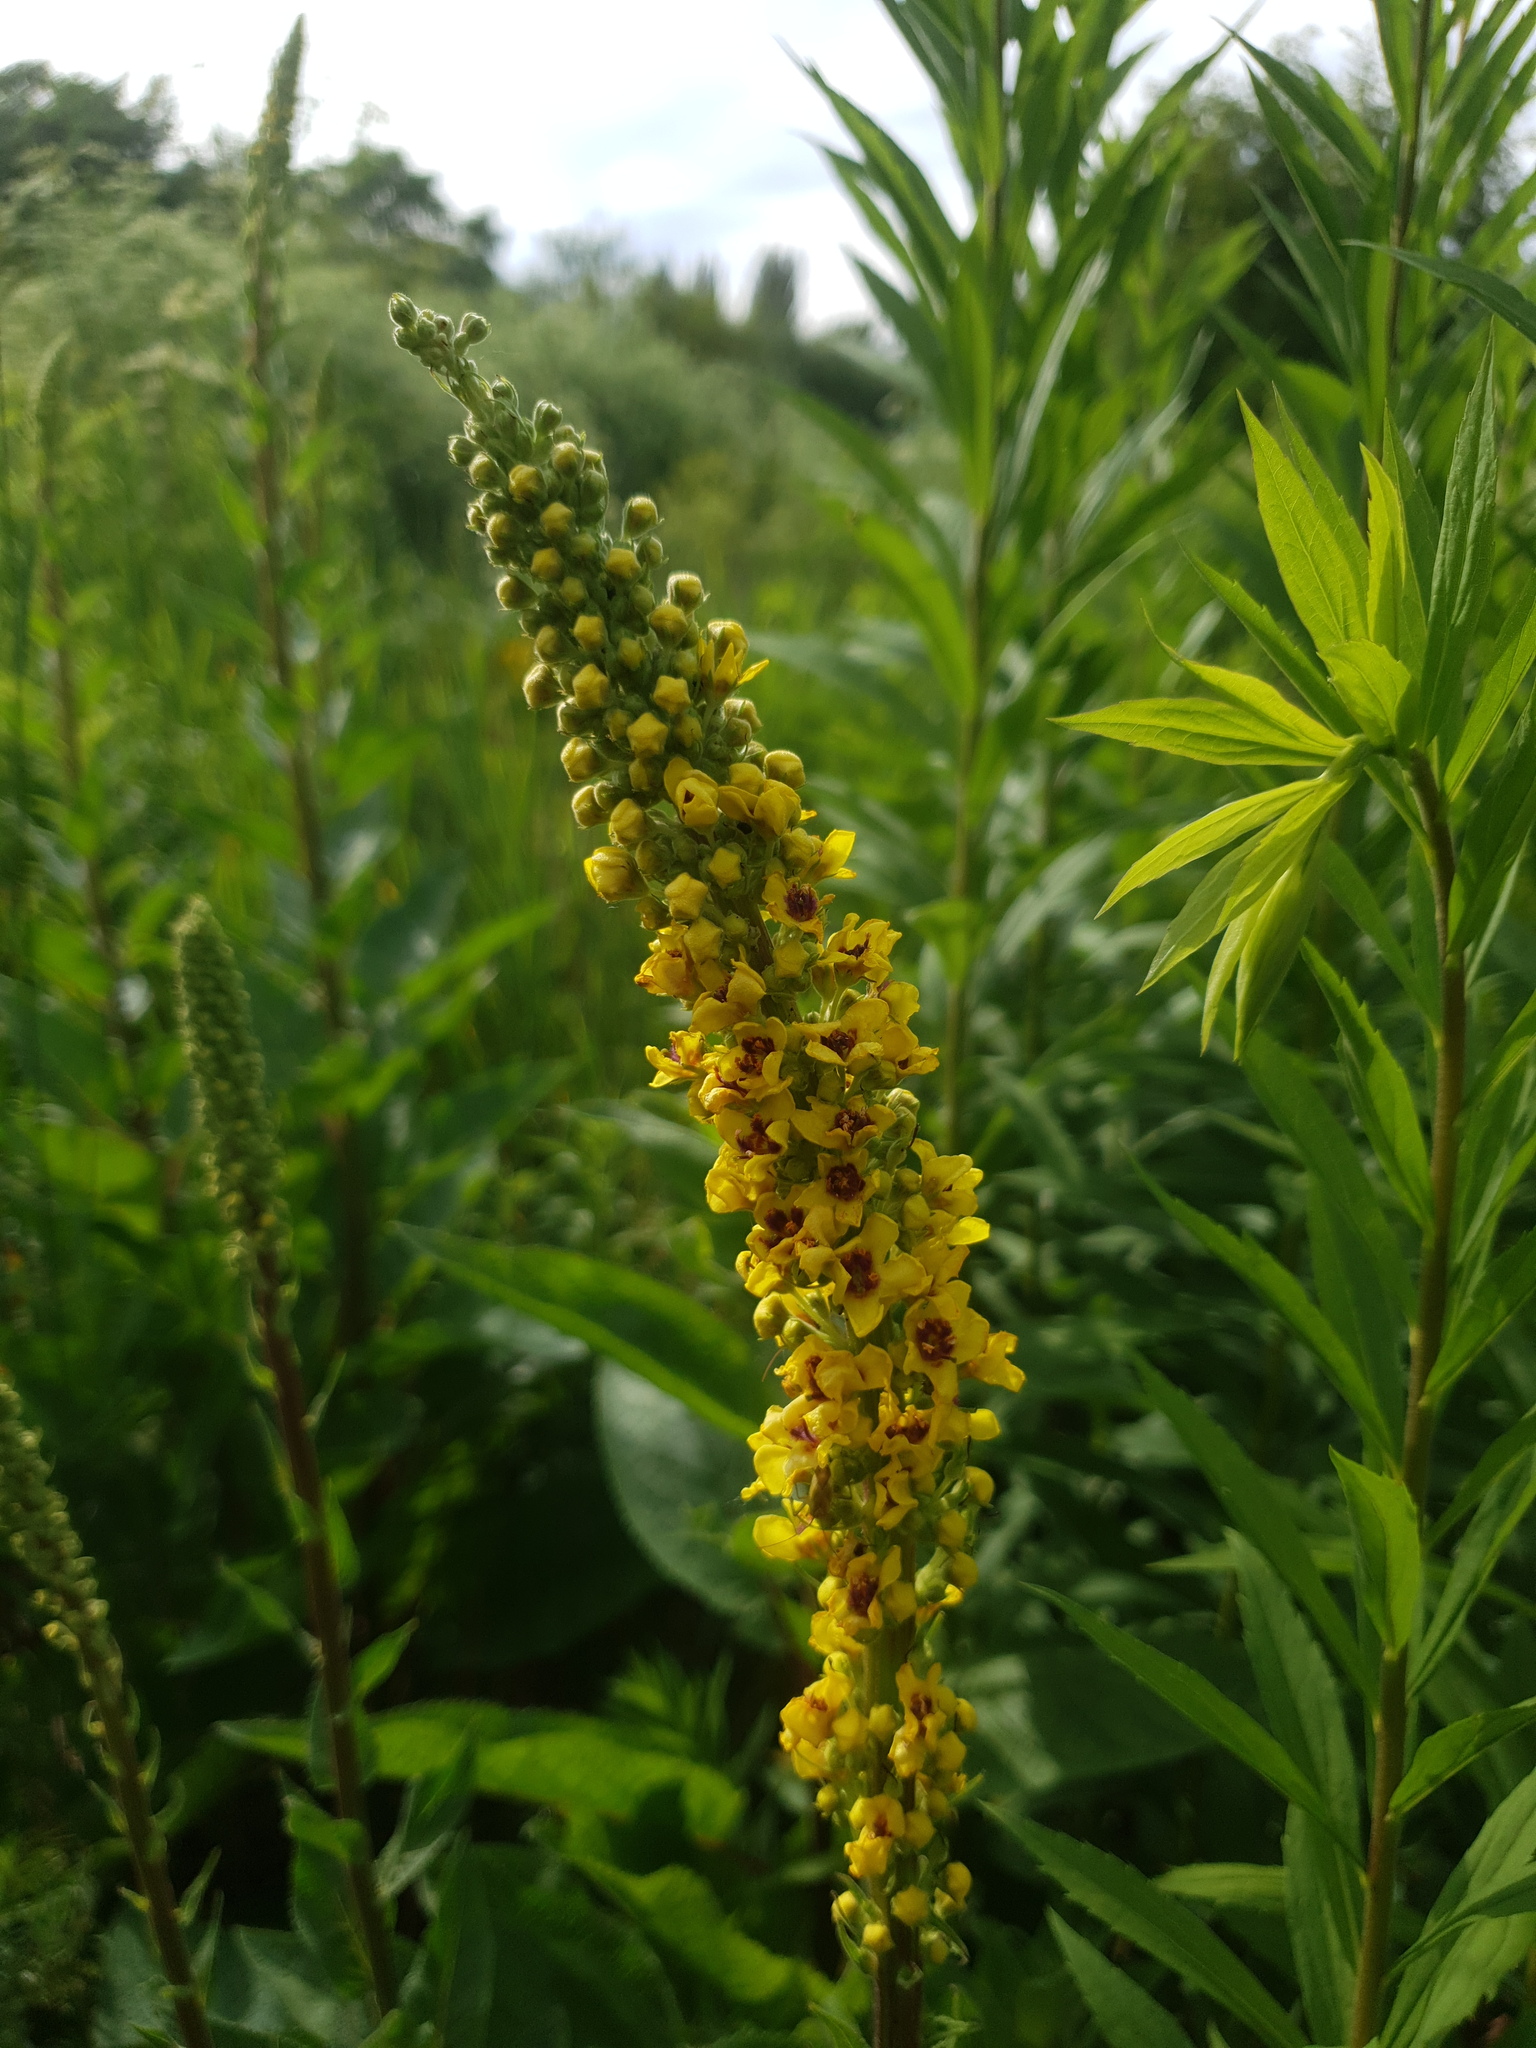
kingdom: Plantae
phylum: Tracheophyta
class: Magnoliopsida
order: Lamiales
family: Scrophulariaceae
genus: Verbascum
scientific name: Verbascum nigrum
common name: Dark mullein
